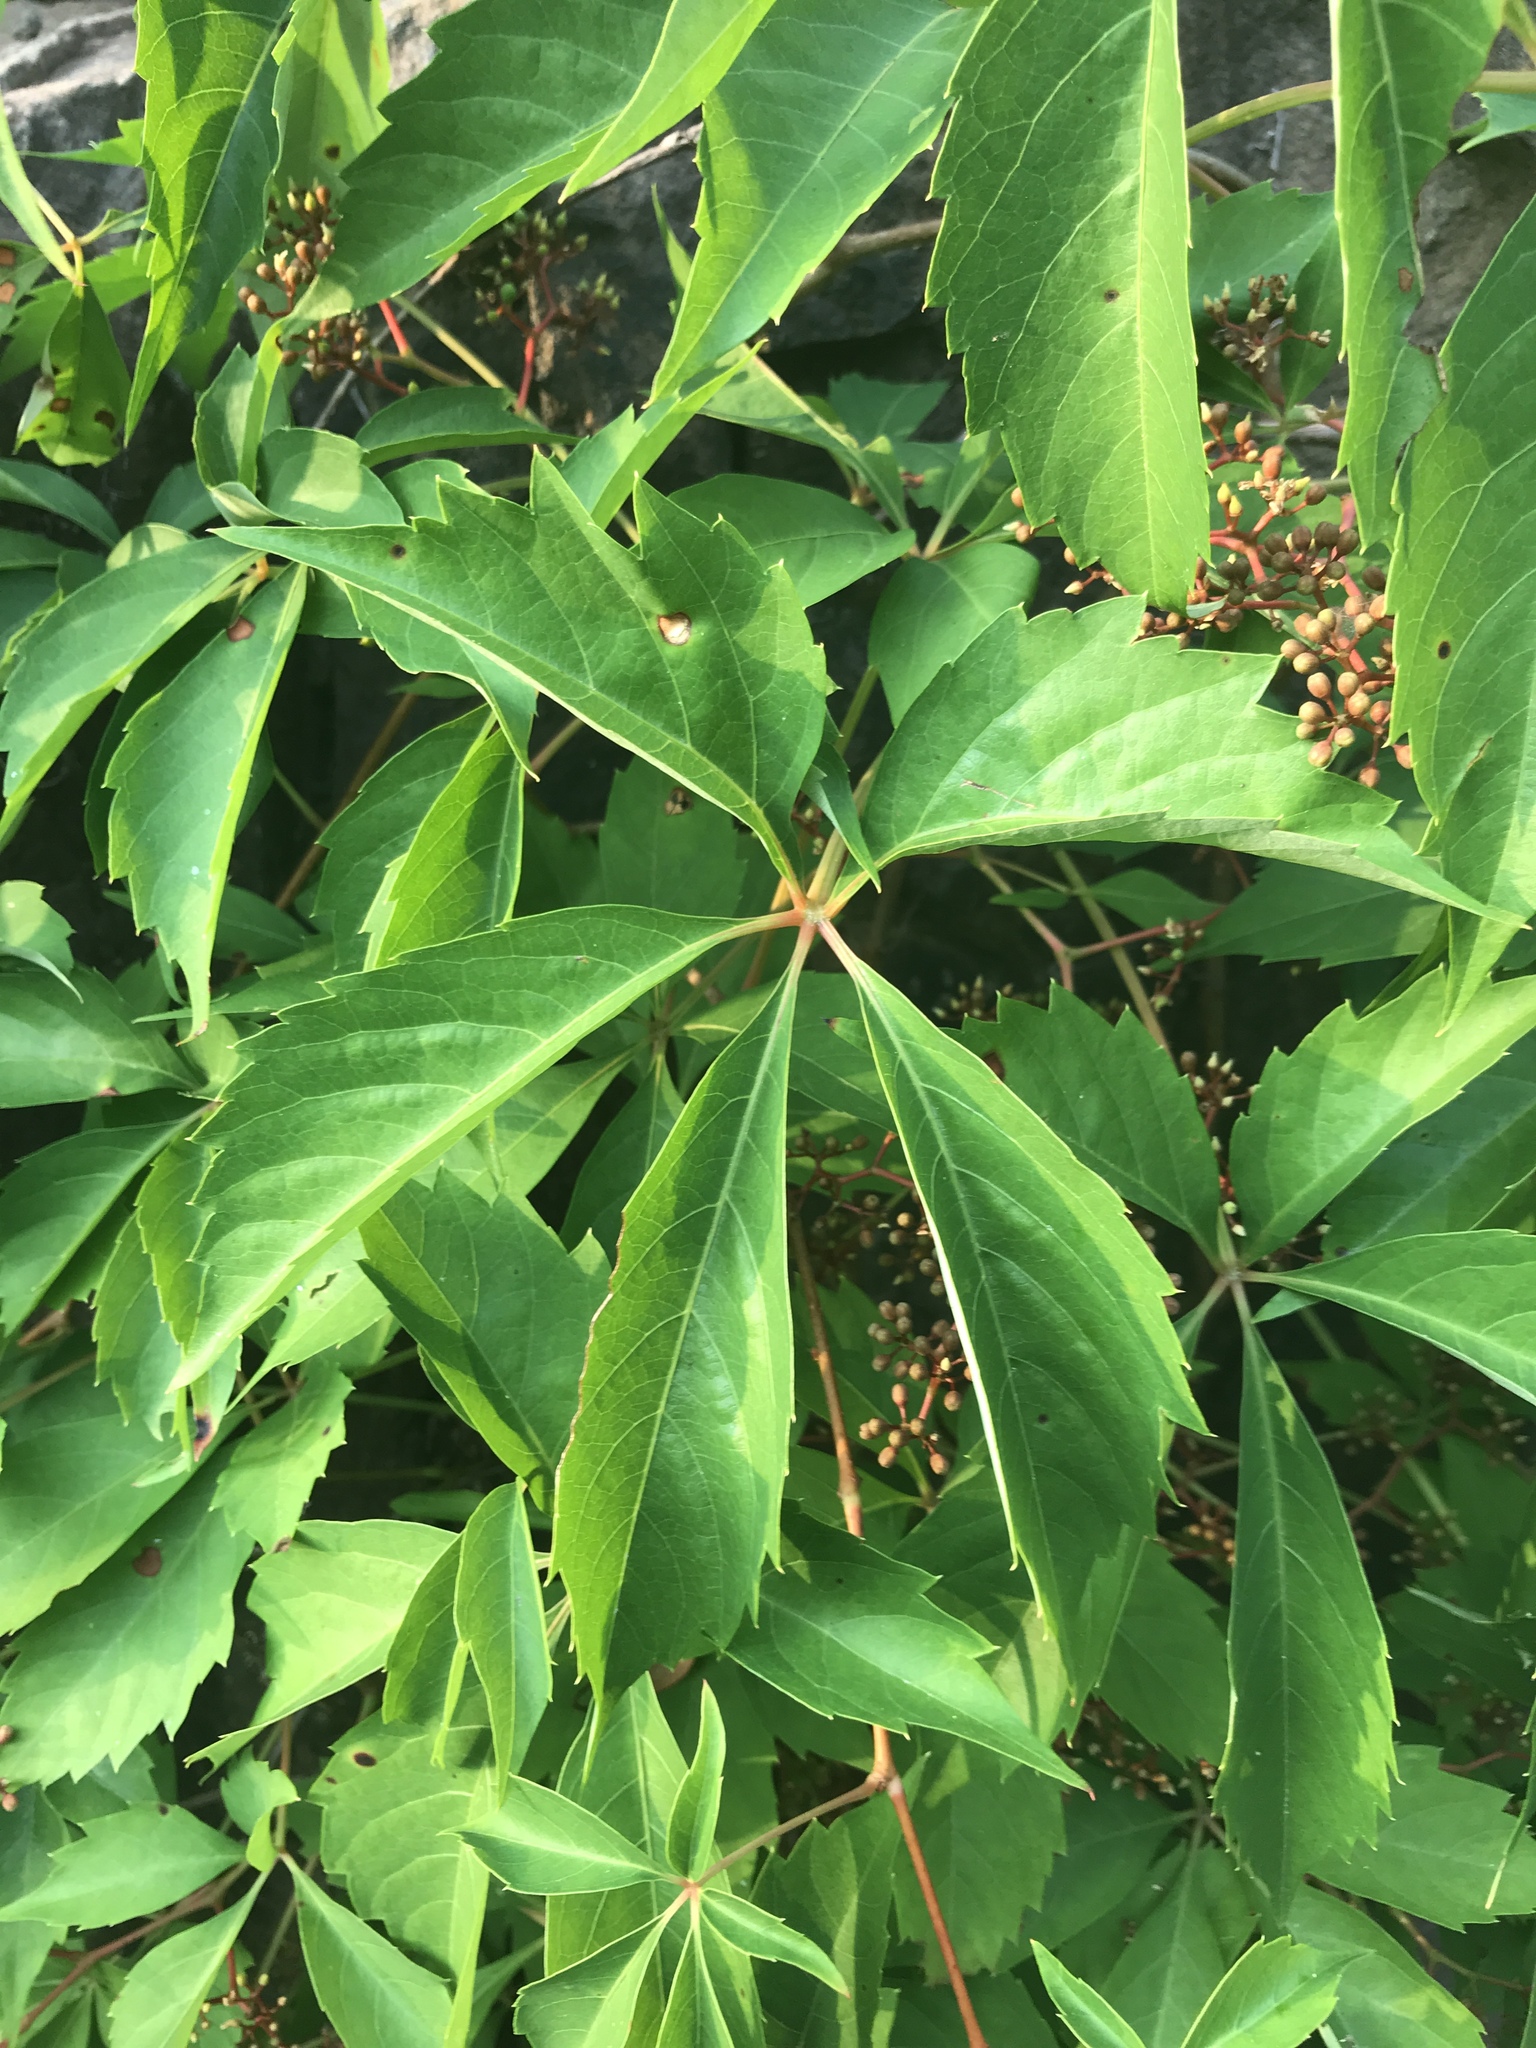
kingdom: Plantae
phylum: Tracheophyta
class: Magnoliopsida
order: Vitales
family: Vitaceae
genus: Parthenocissus
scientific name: Parthenocissus quinquefolia
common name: Virginia-creeper
